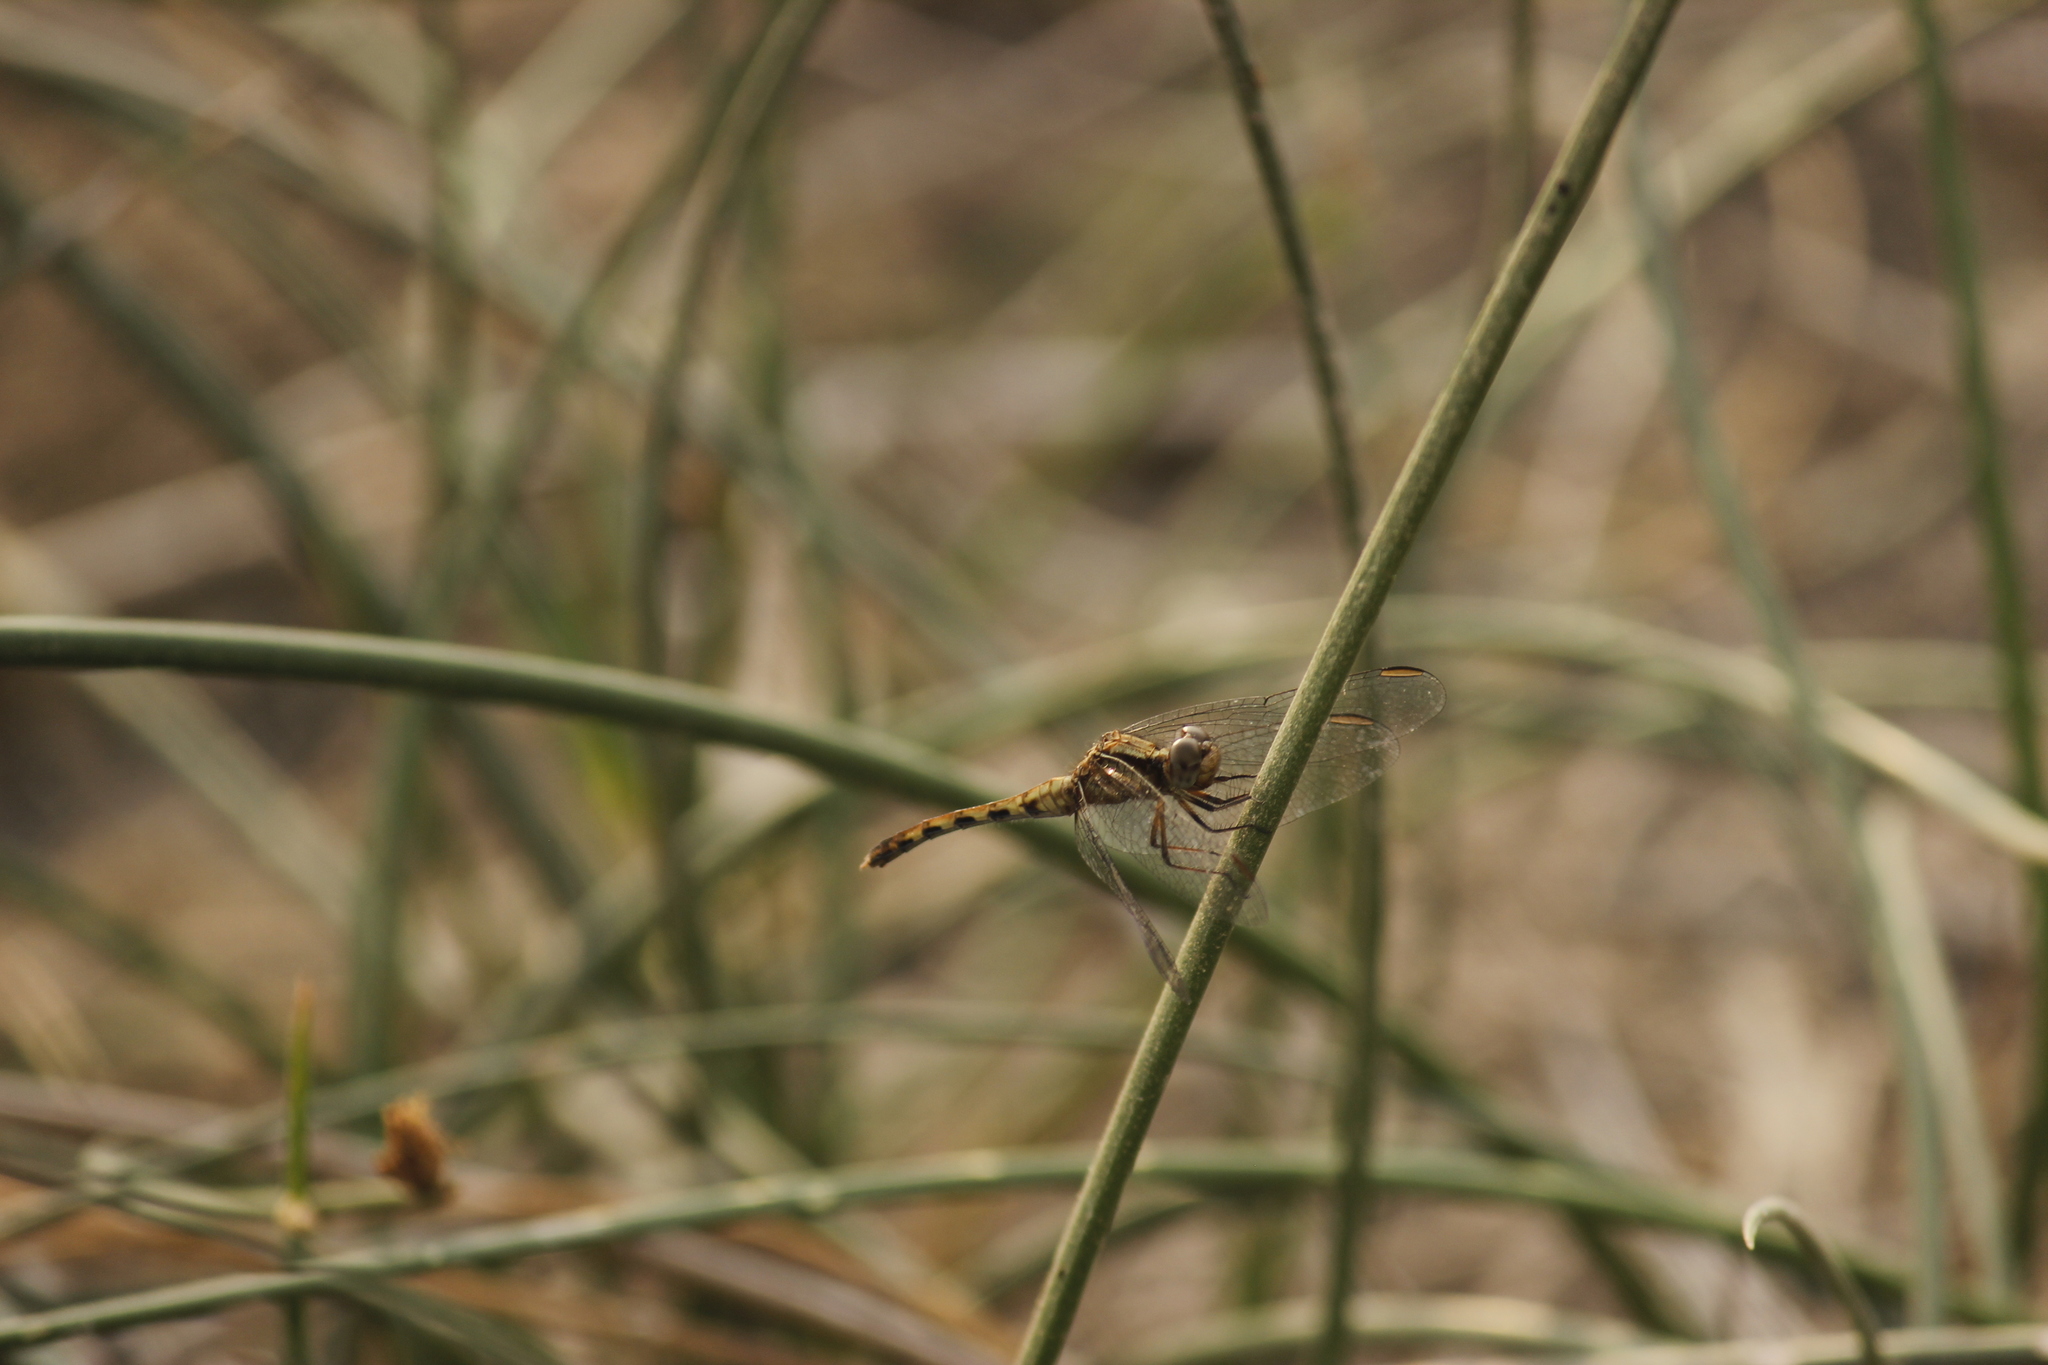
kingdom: Animalia
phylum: Arthropoda
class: Insecta
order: Odonata
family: Libellulidae
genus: Erythrodiplax
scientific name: Erythrodiplax cleopatra
